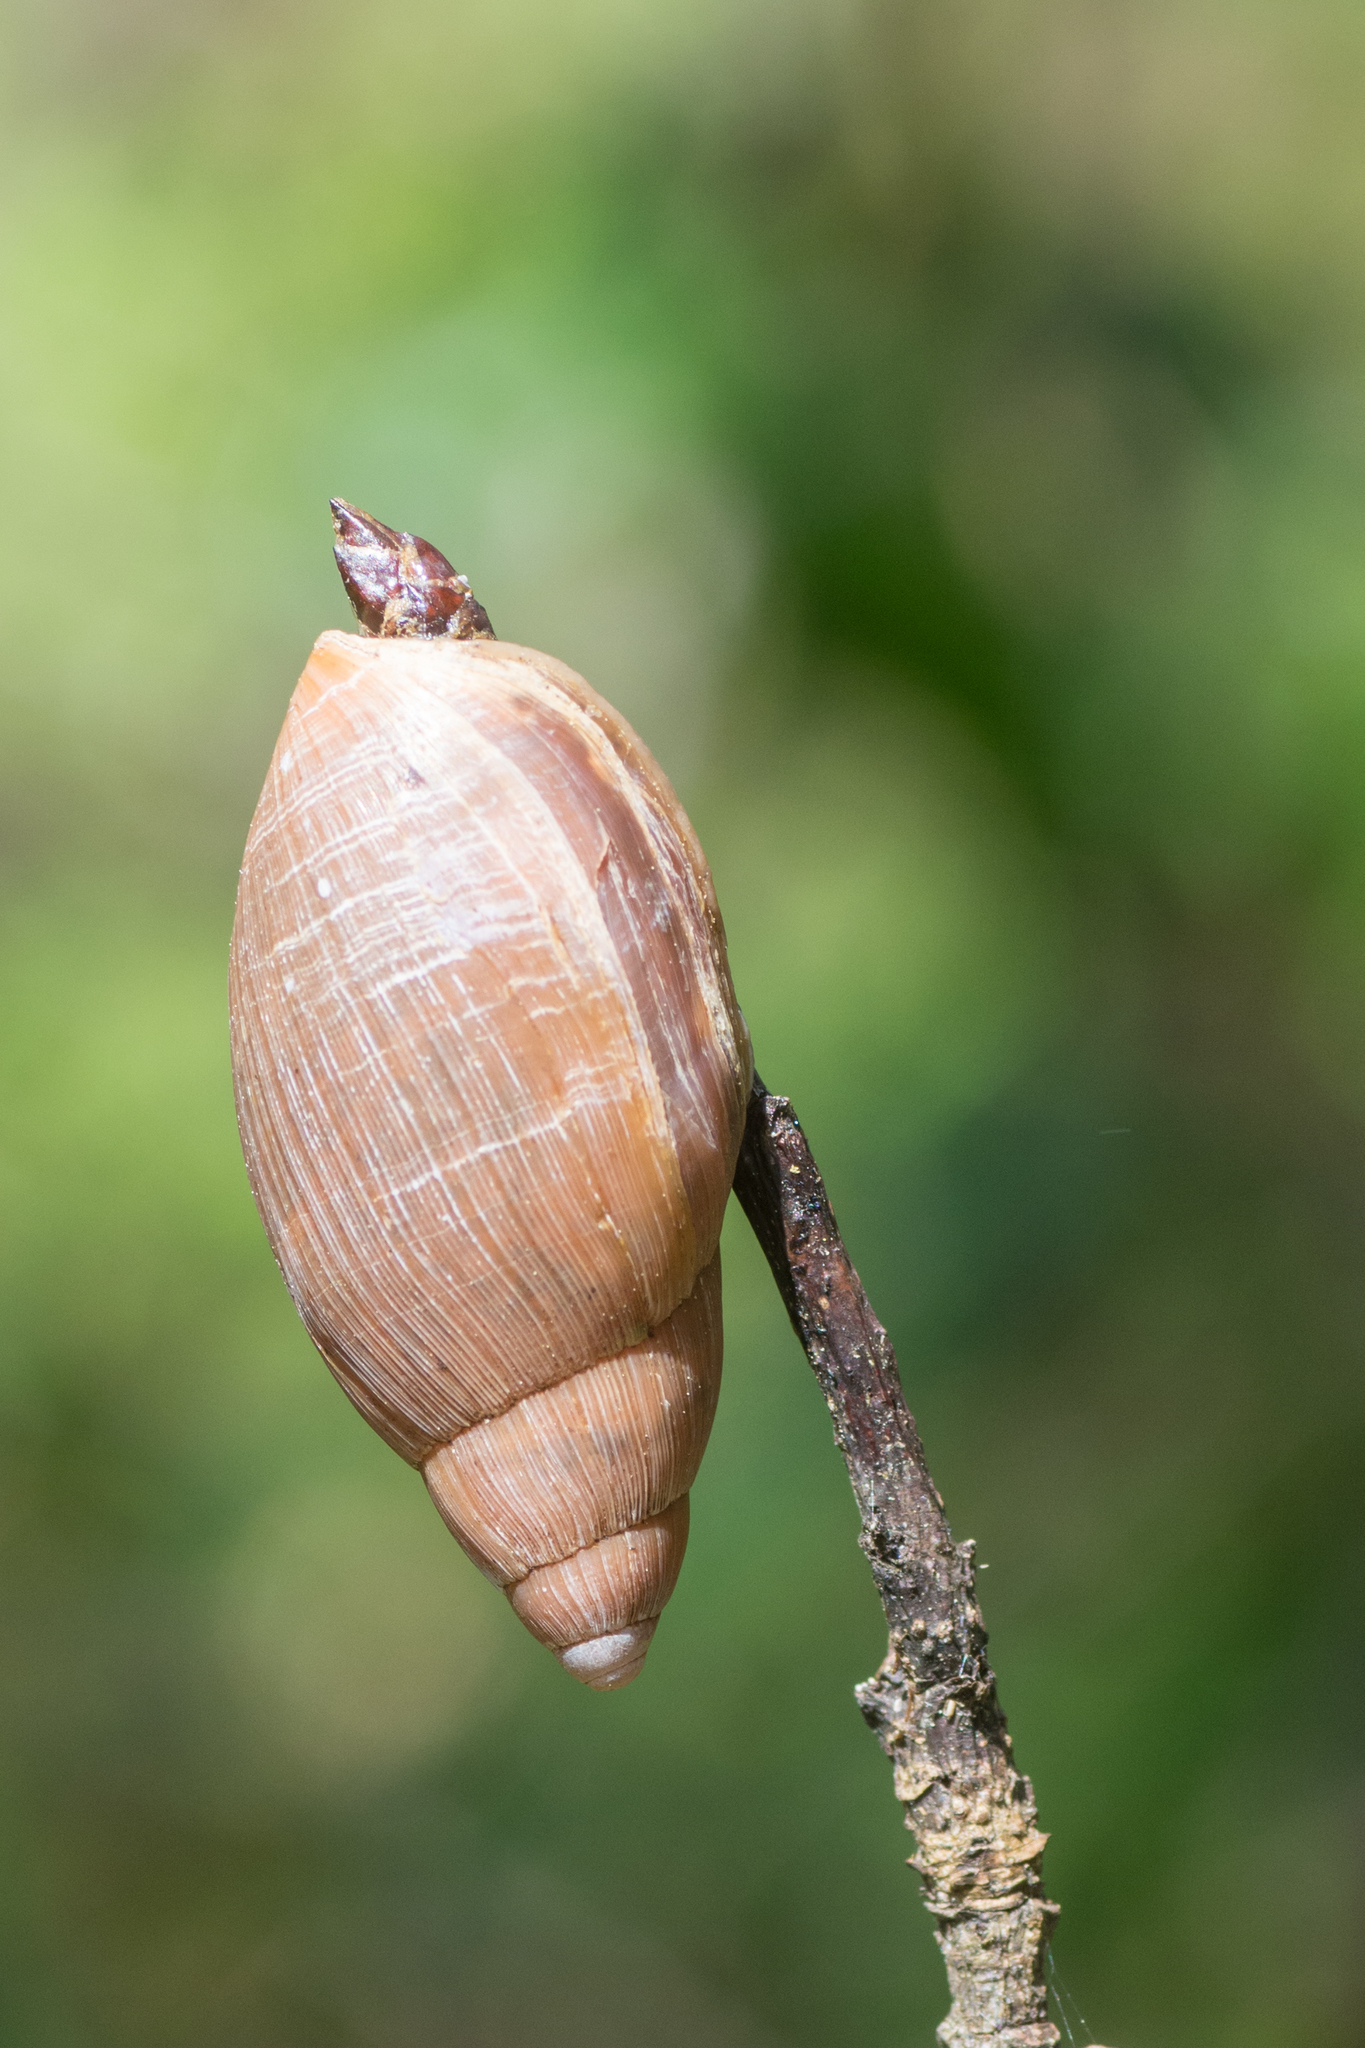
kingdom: Animalia
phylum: Mollusca
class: Gastropoda
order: Stylommatophora
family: Spiraxidae
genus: Euglandina
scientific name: Euglandina rosea
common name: Rosy wolfsnail
